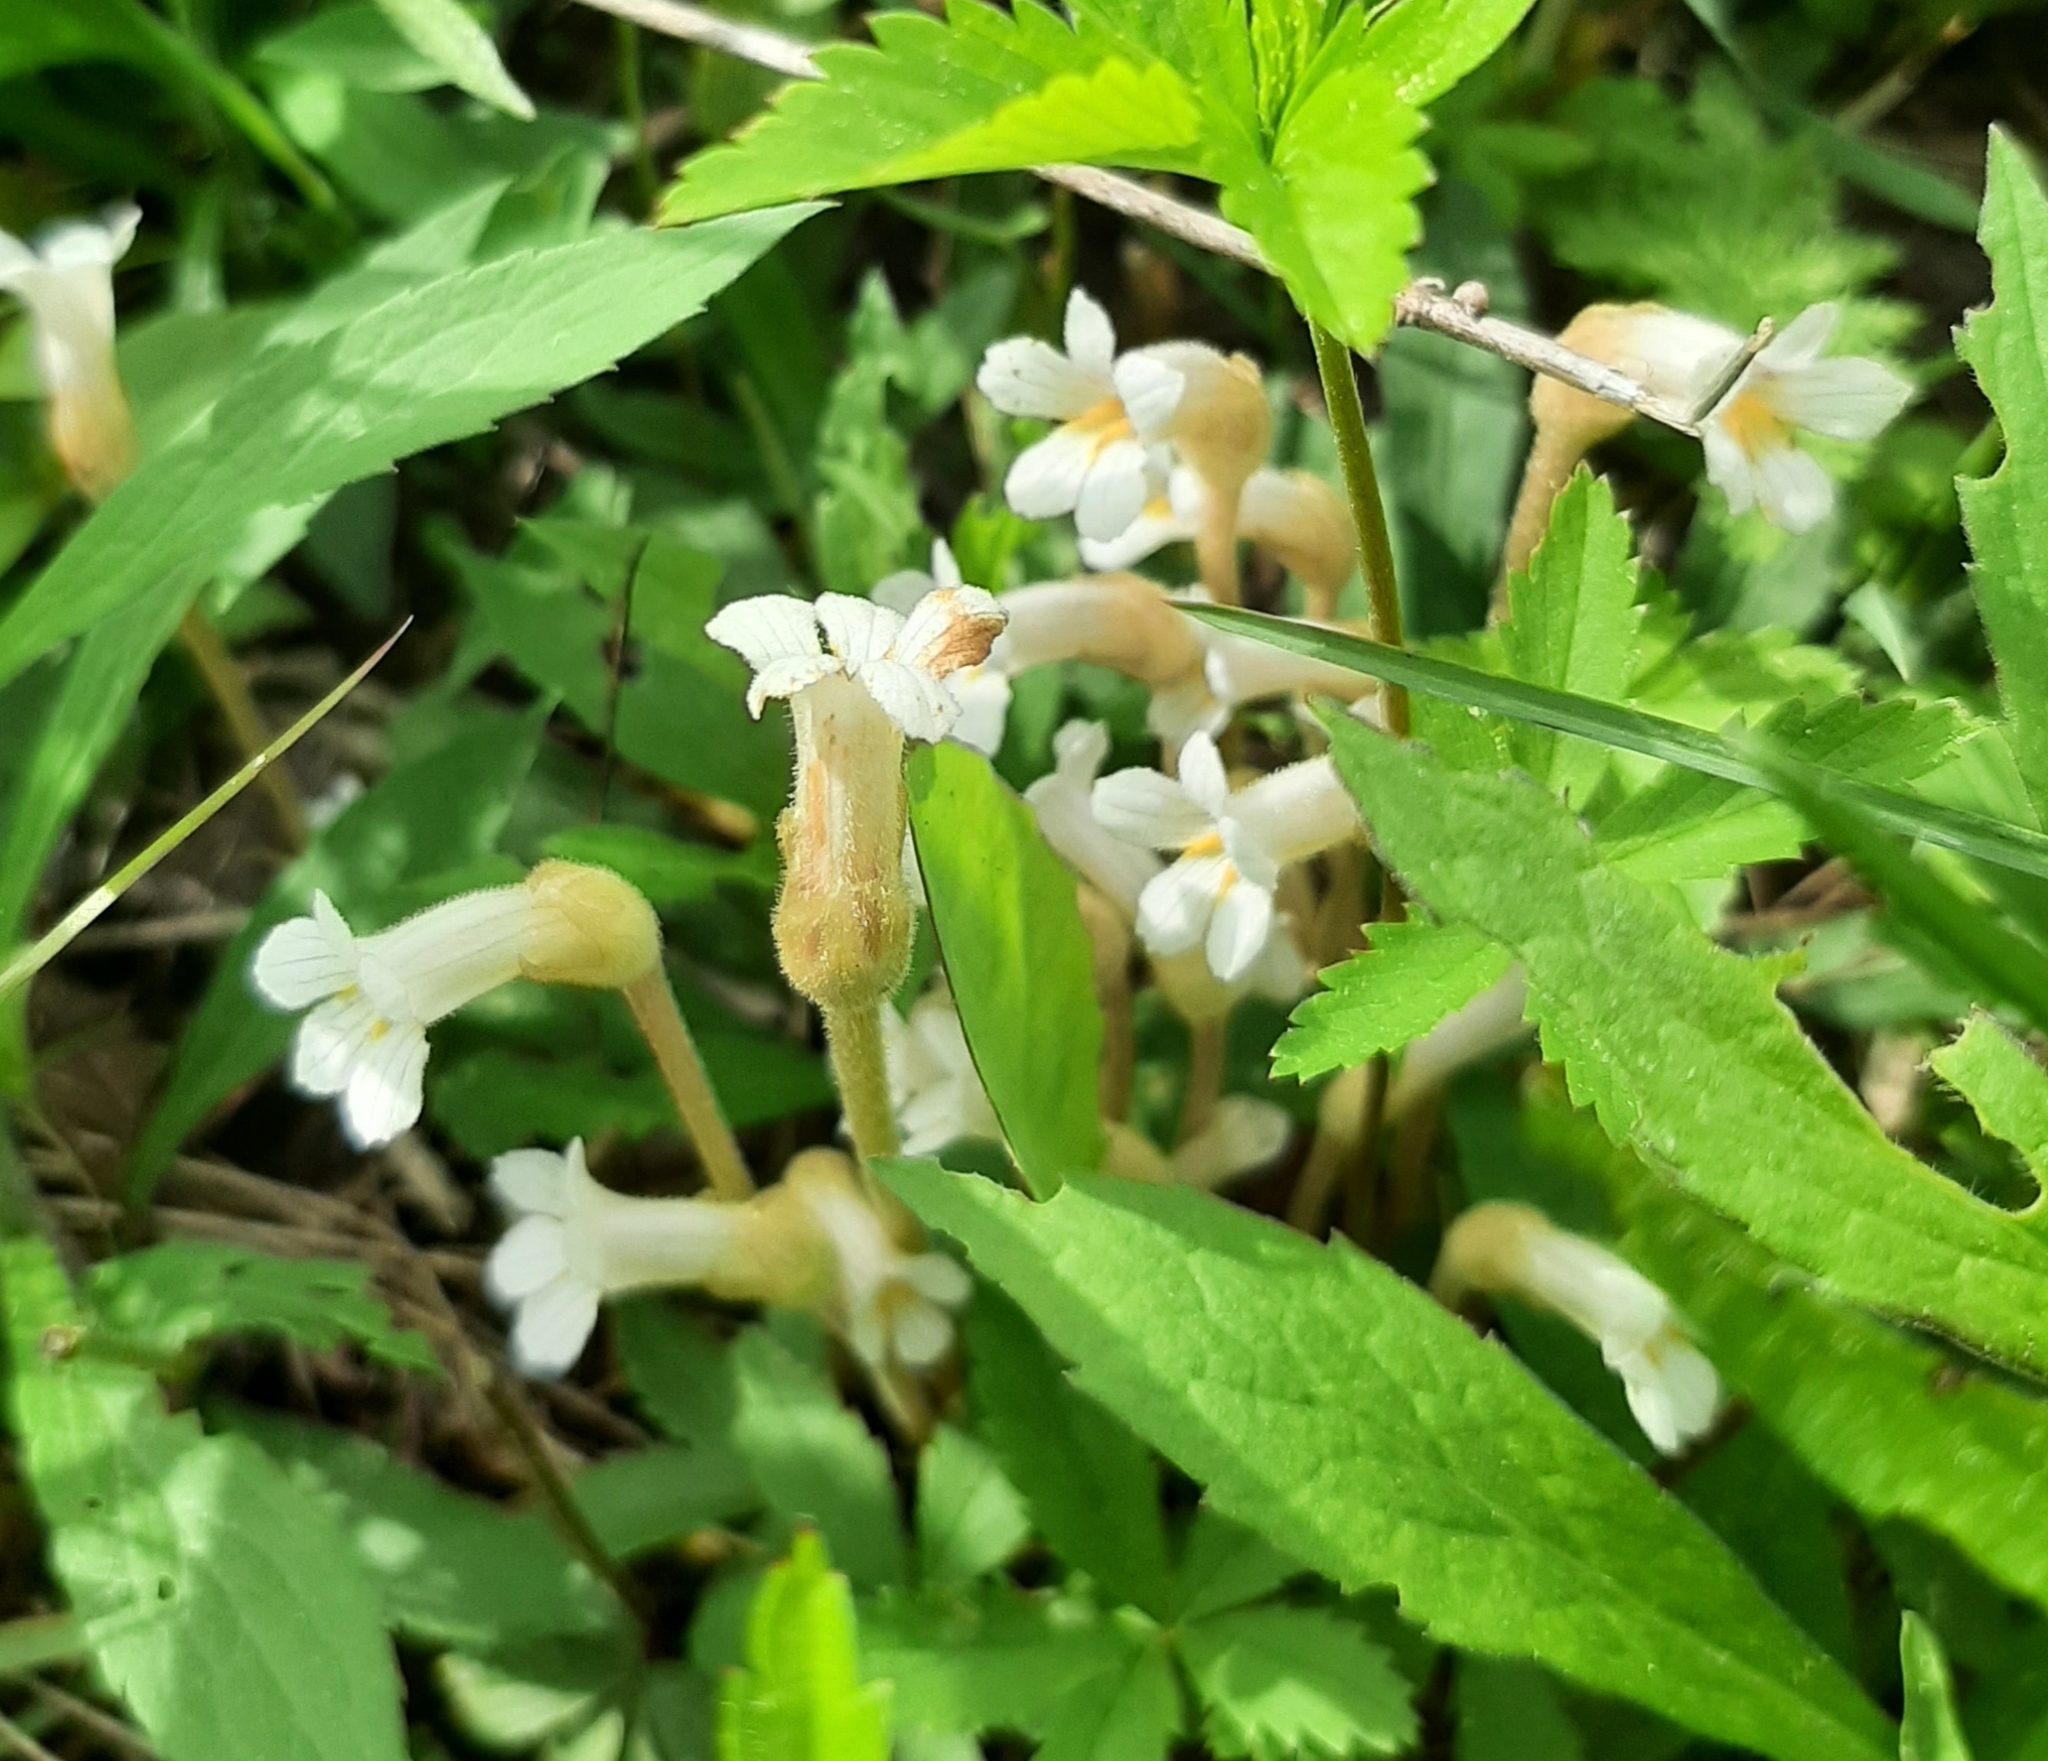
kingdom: Plantae
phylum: Tracheophyta
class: Magnoliopsida
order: Lamiales
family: Orobanchaceae
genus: Aphyllon
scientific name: Aphyllon uniflorum
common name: One-flowered broomrape
